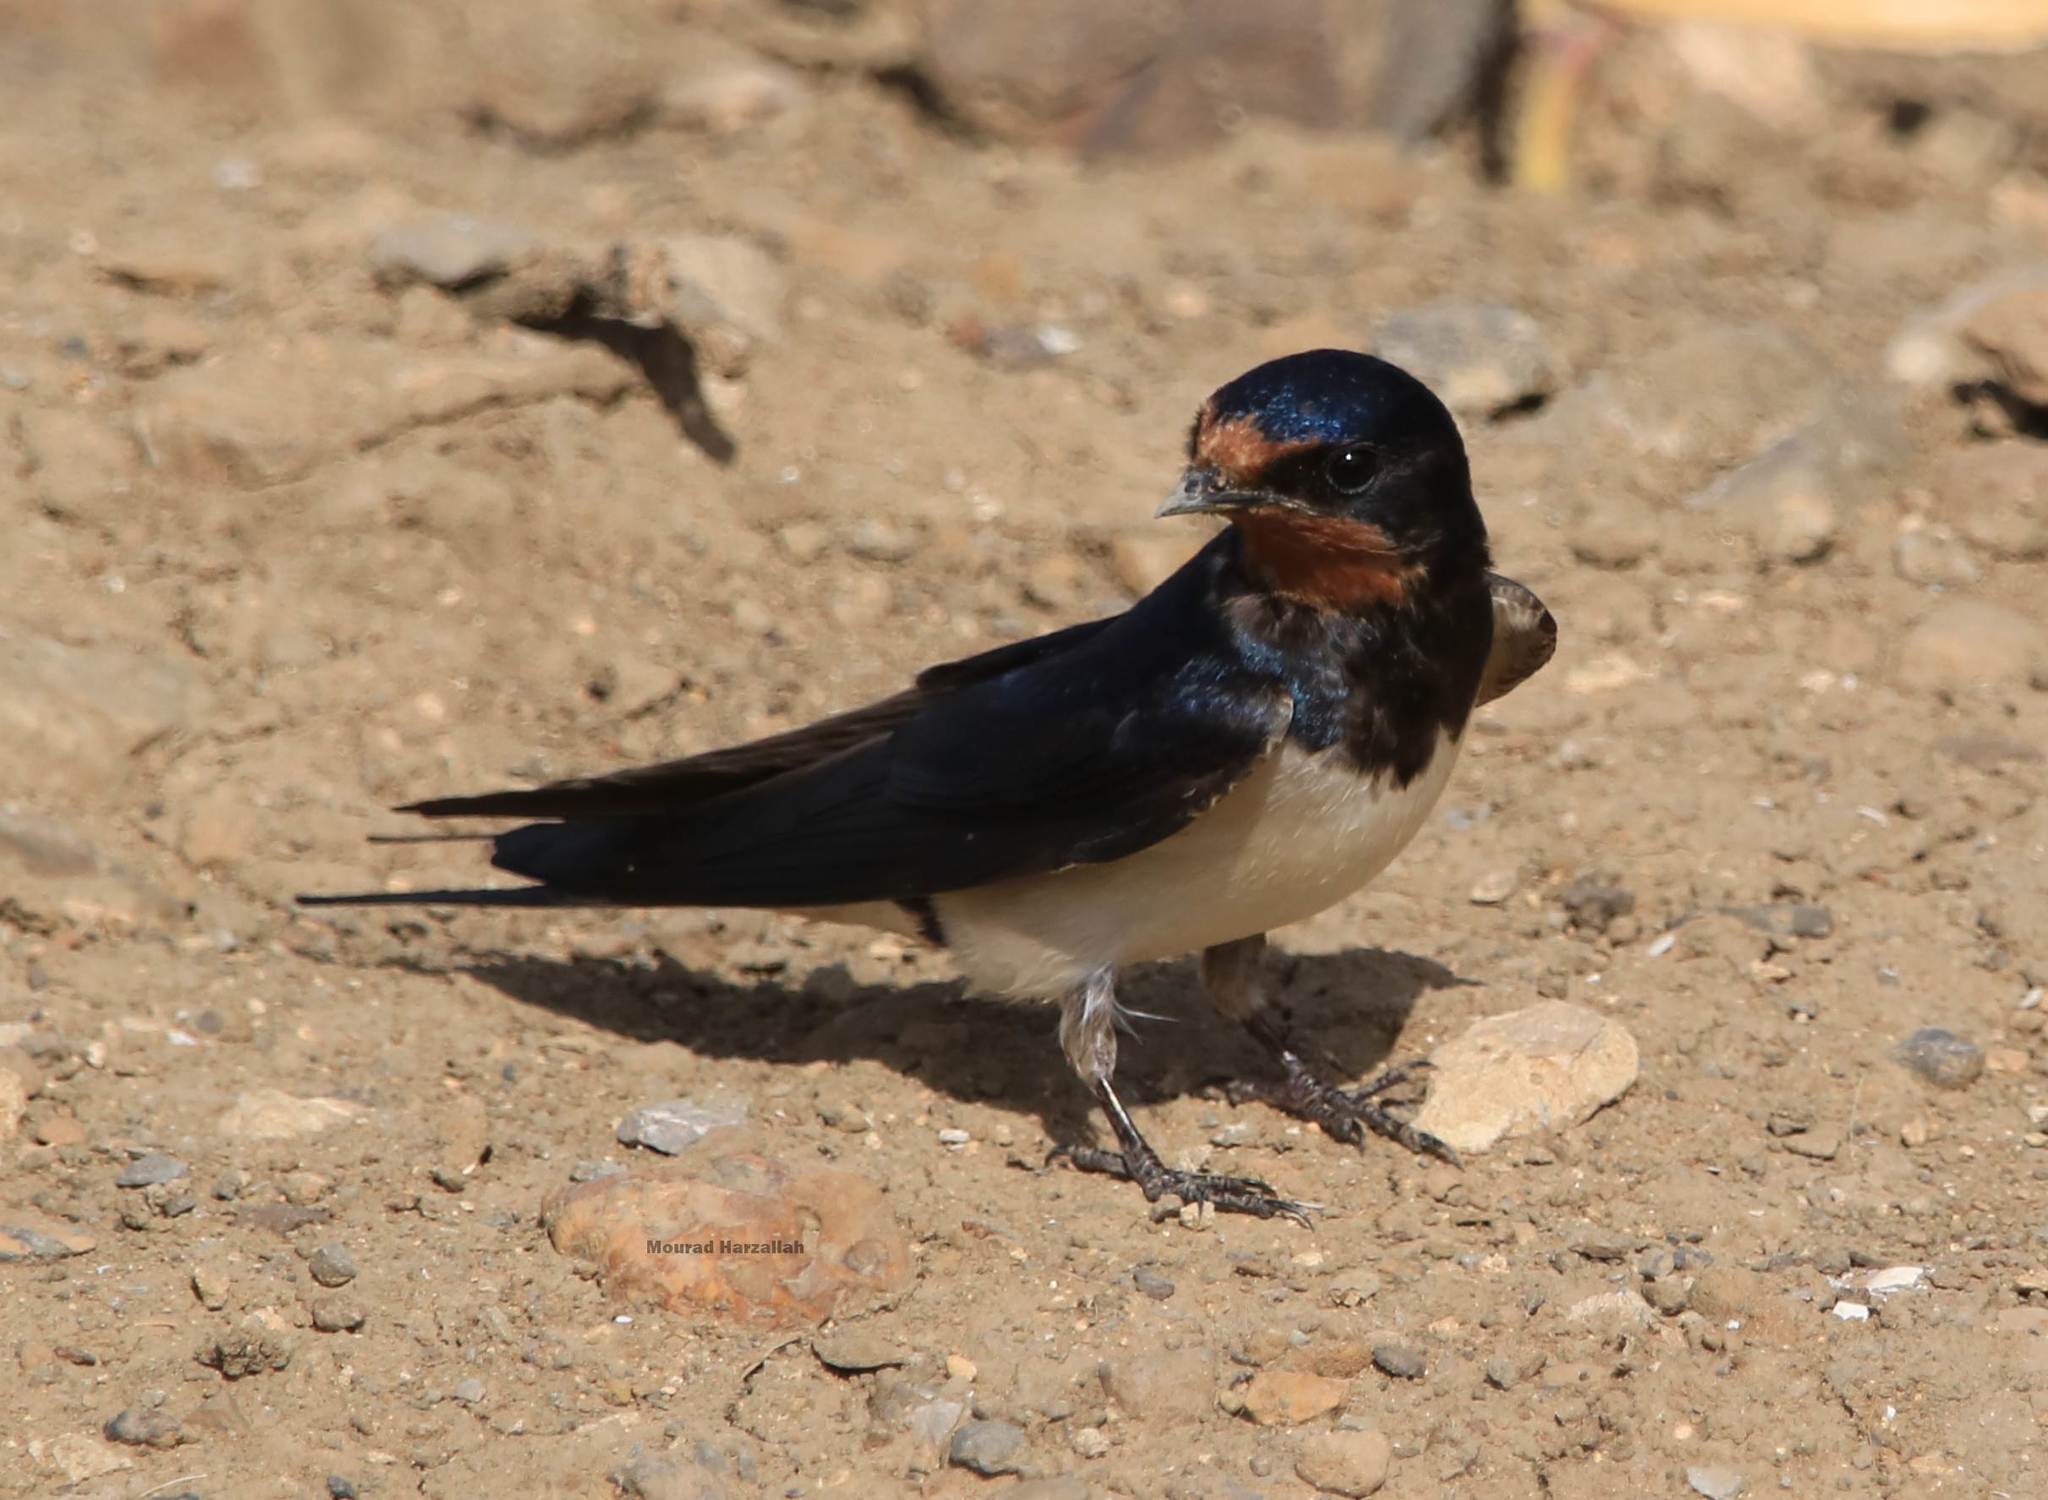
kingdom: Animalia
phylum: Chordata
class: Aves
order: Passeriformes
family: Hirundinidae
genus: Hirundo
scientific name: Hirundo rustica
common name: Barn swallow
